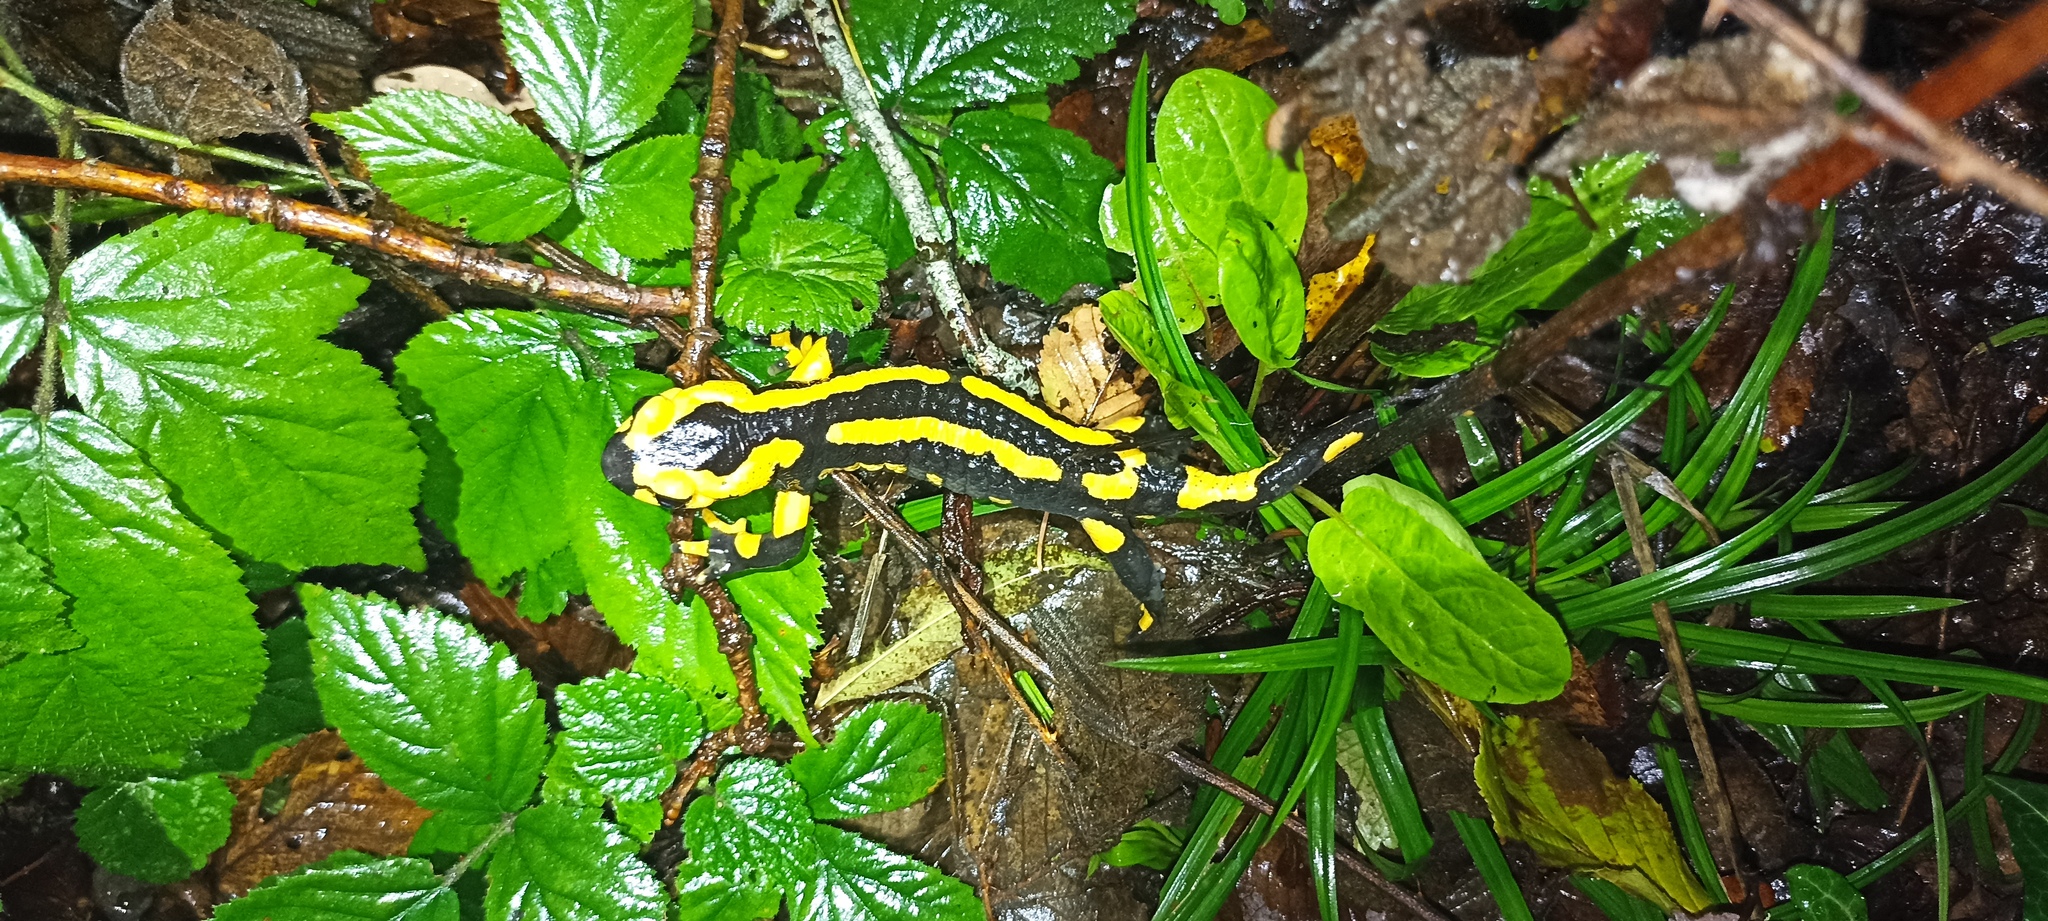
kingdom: Animalia
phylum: Chordata
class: Amphibia
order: Caudata
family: Salamandridae
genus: Salamandra
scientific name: Salamandra salamandra
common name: Fire salamander
